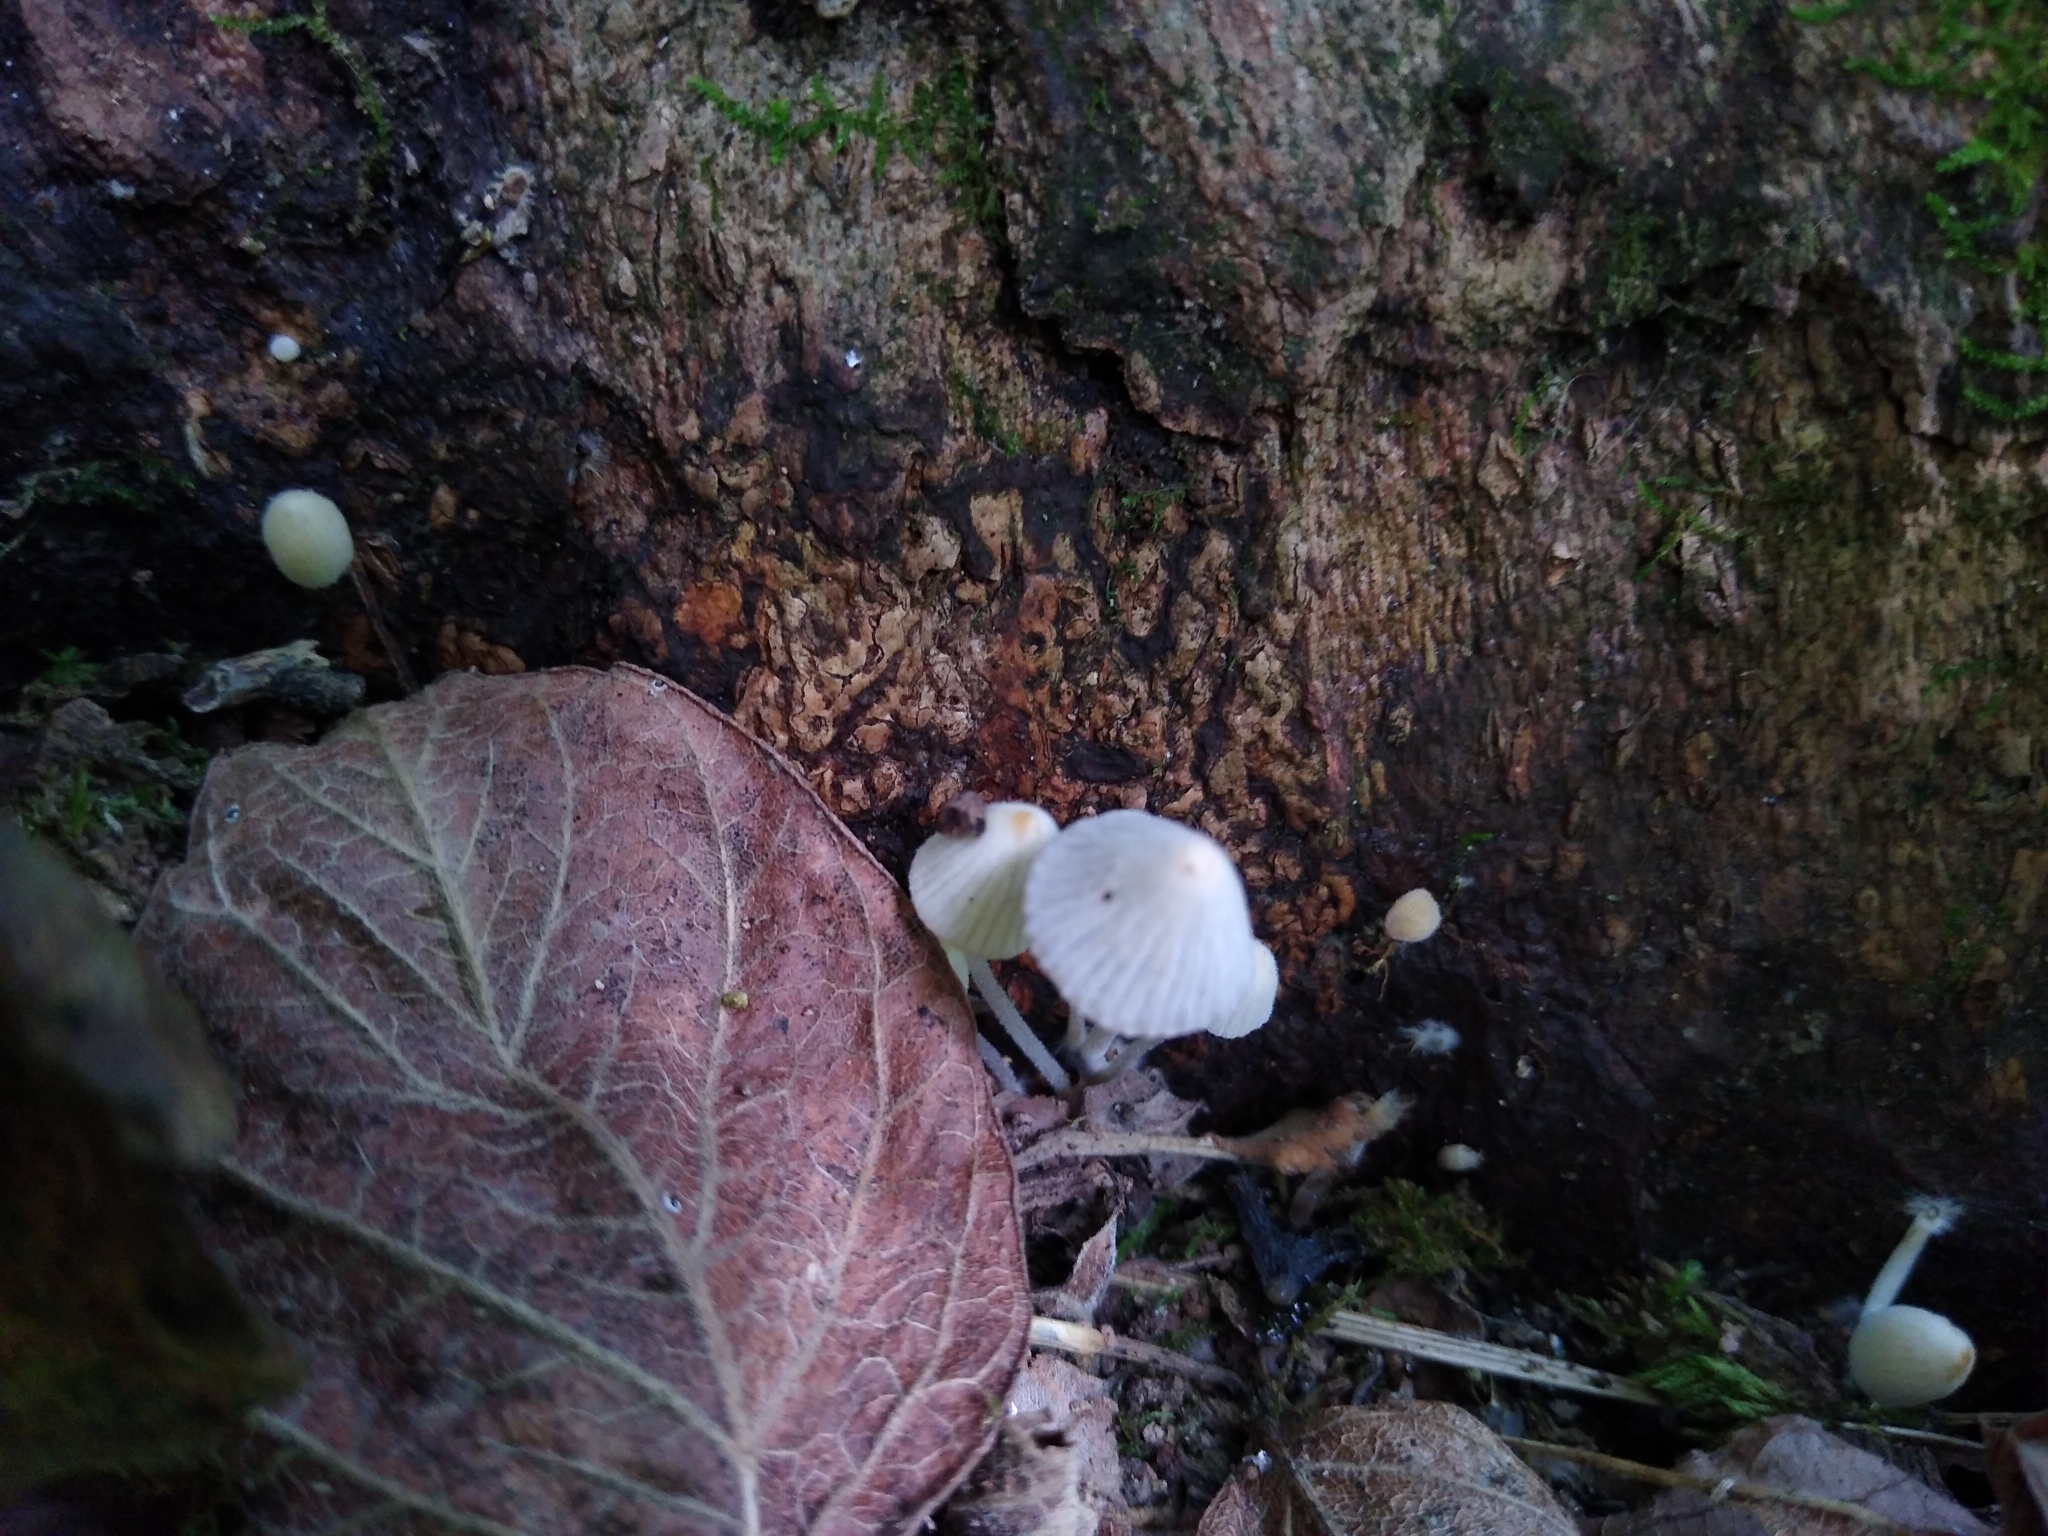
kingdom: Fungi
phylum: Basidiomycota
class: Agaricomycetes
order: Agaricales
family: Psathyrellaceae
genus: Coprinellus
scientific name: Coprinellus disseminatus
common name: Fairies' bonnets
